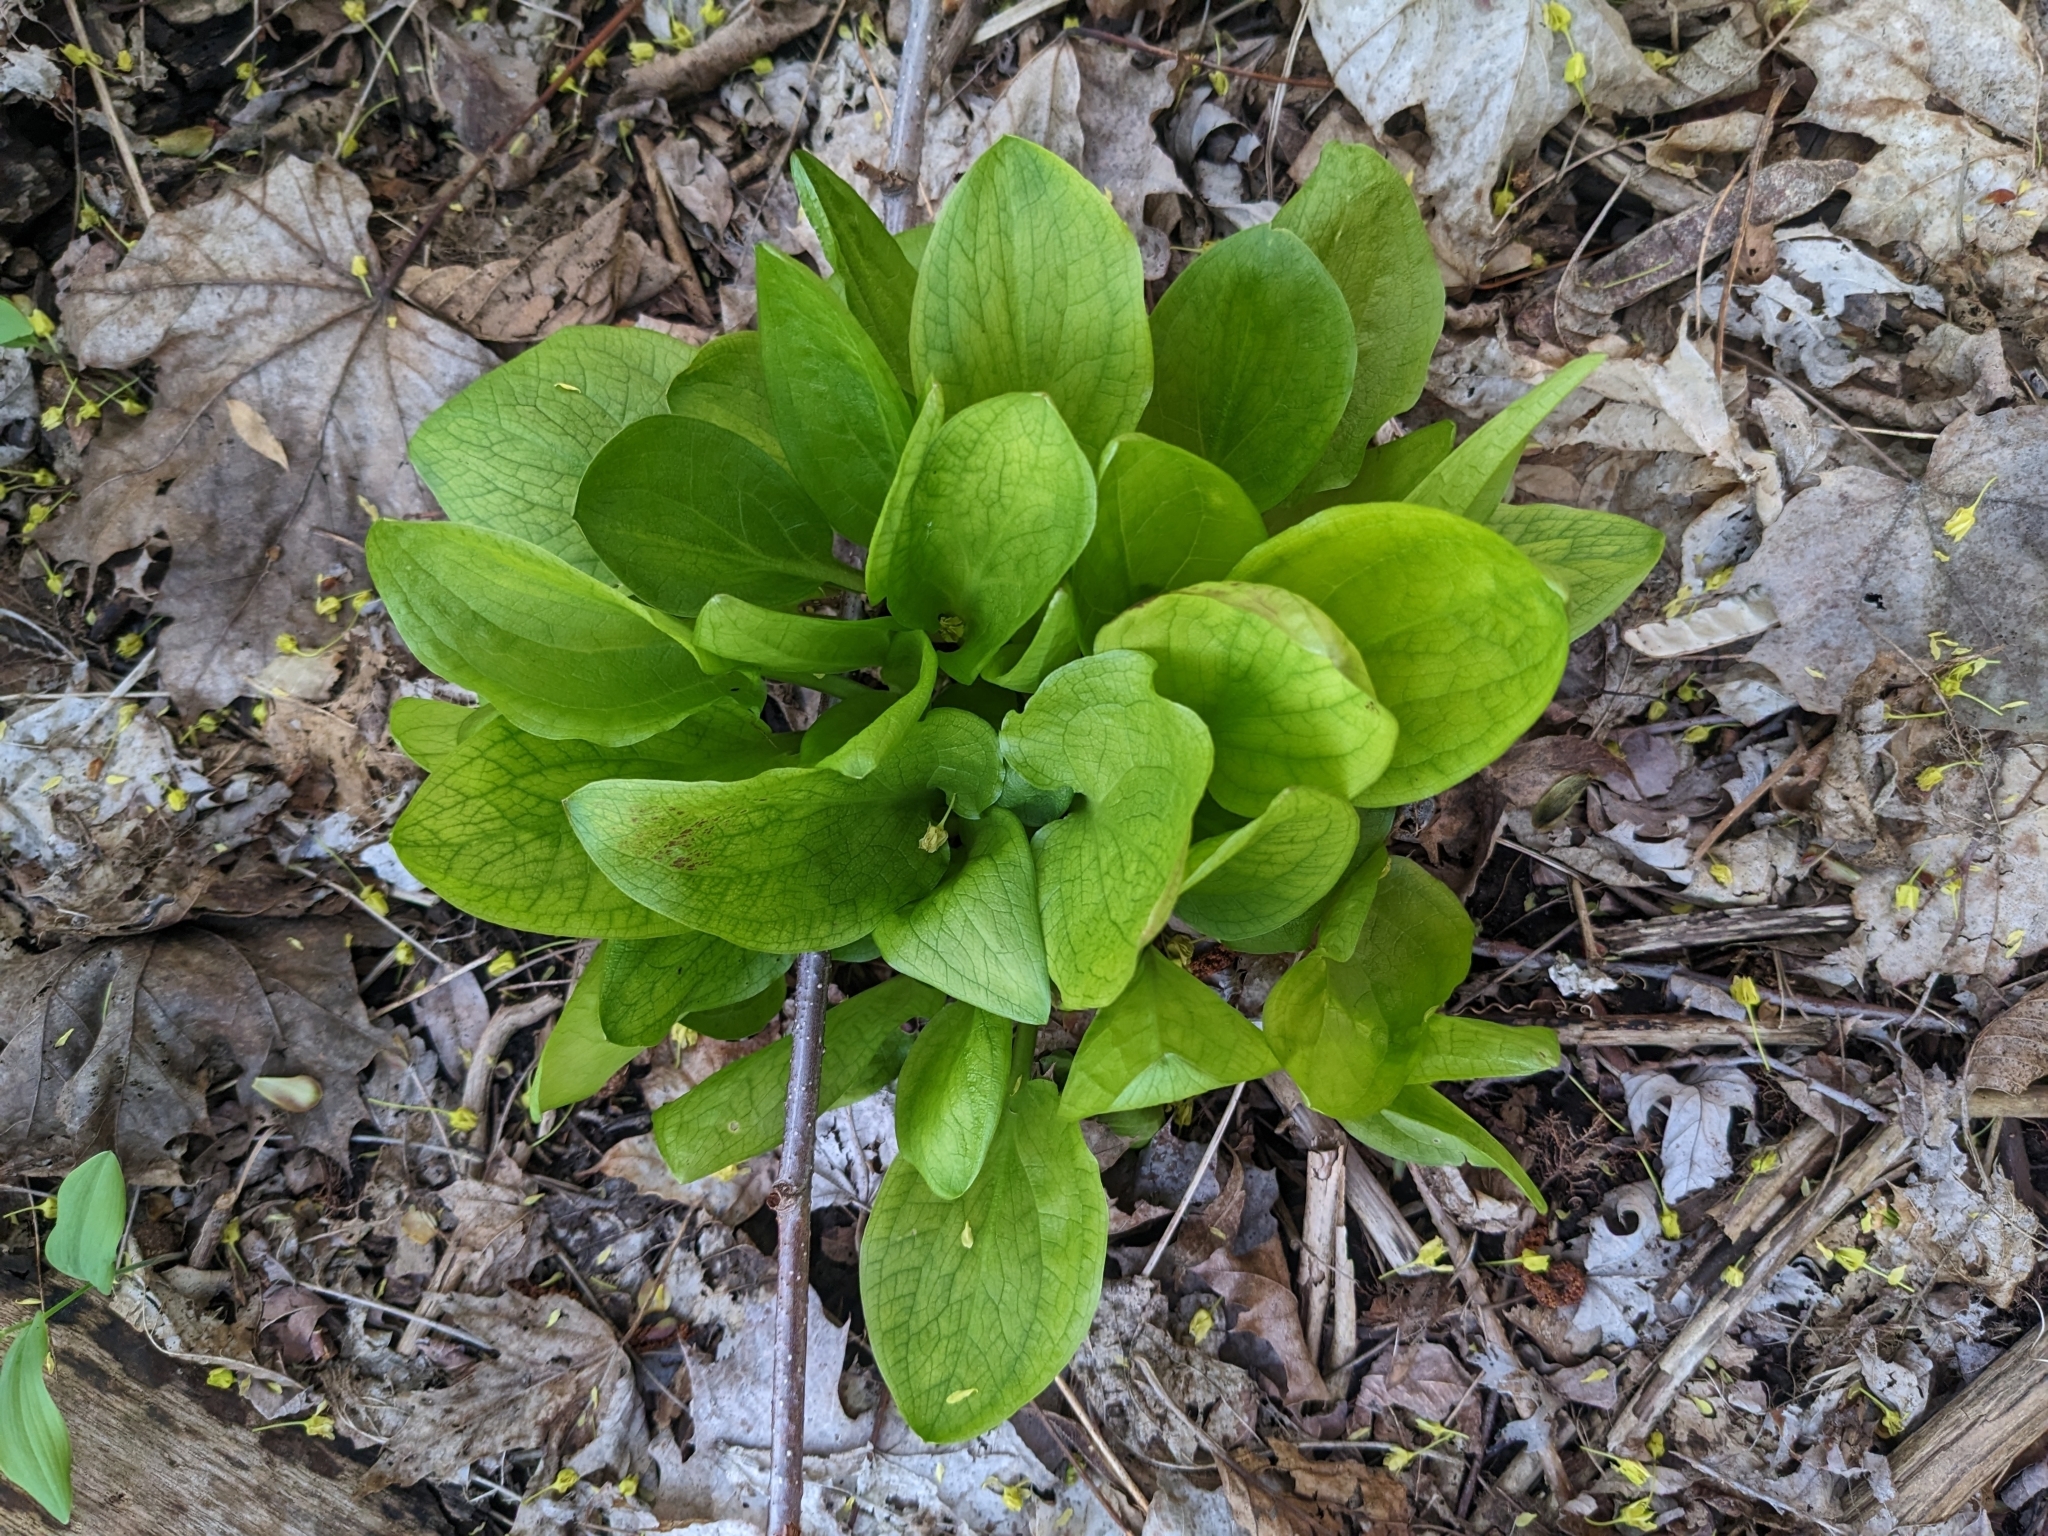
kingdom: Plantae
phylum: Tracheophyta
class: Liliopsida
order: Alismatales
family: Araceae
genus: Symplocarpus
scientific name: Symplocarpus foetidus
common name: Eastern skunk cabbage
